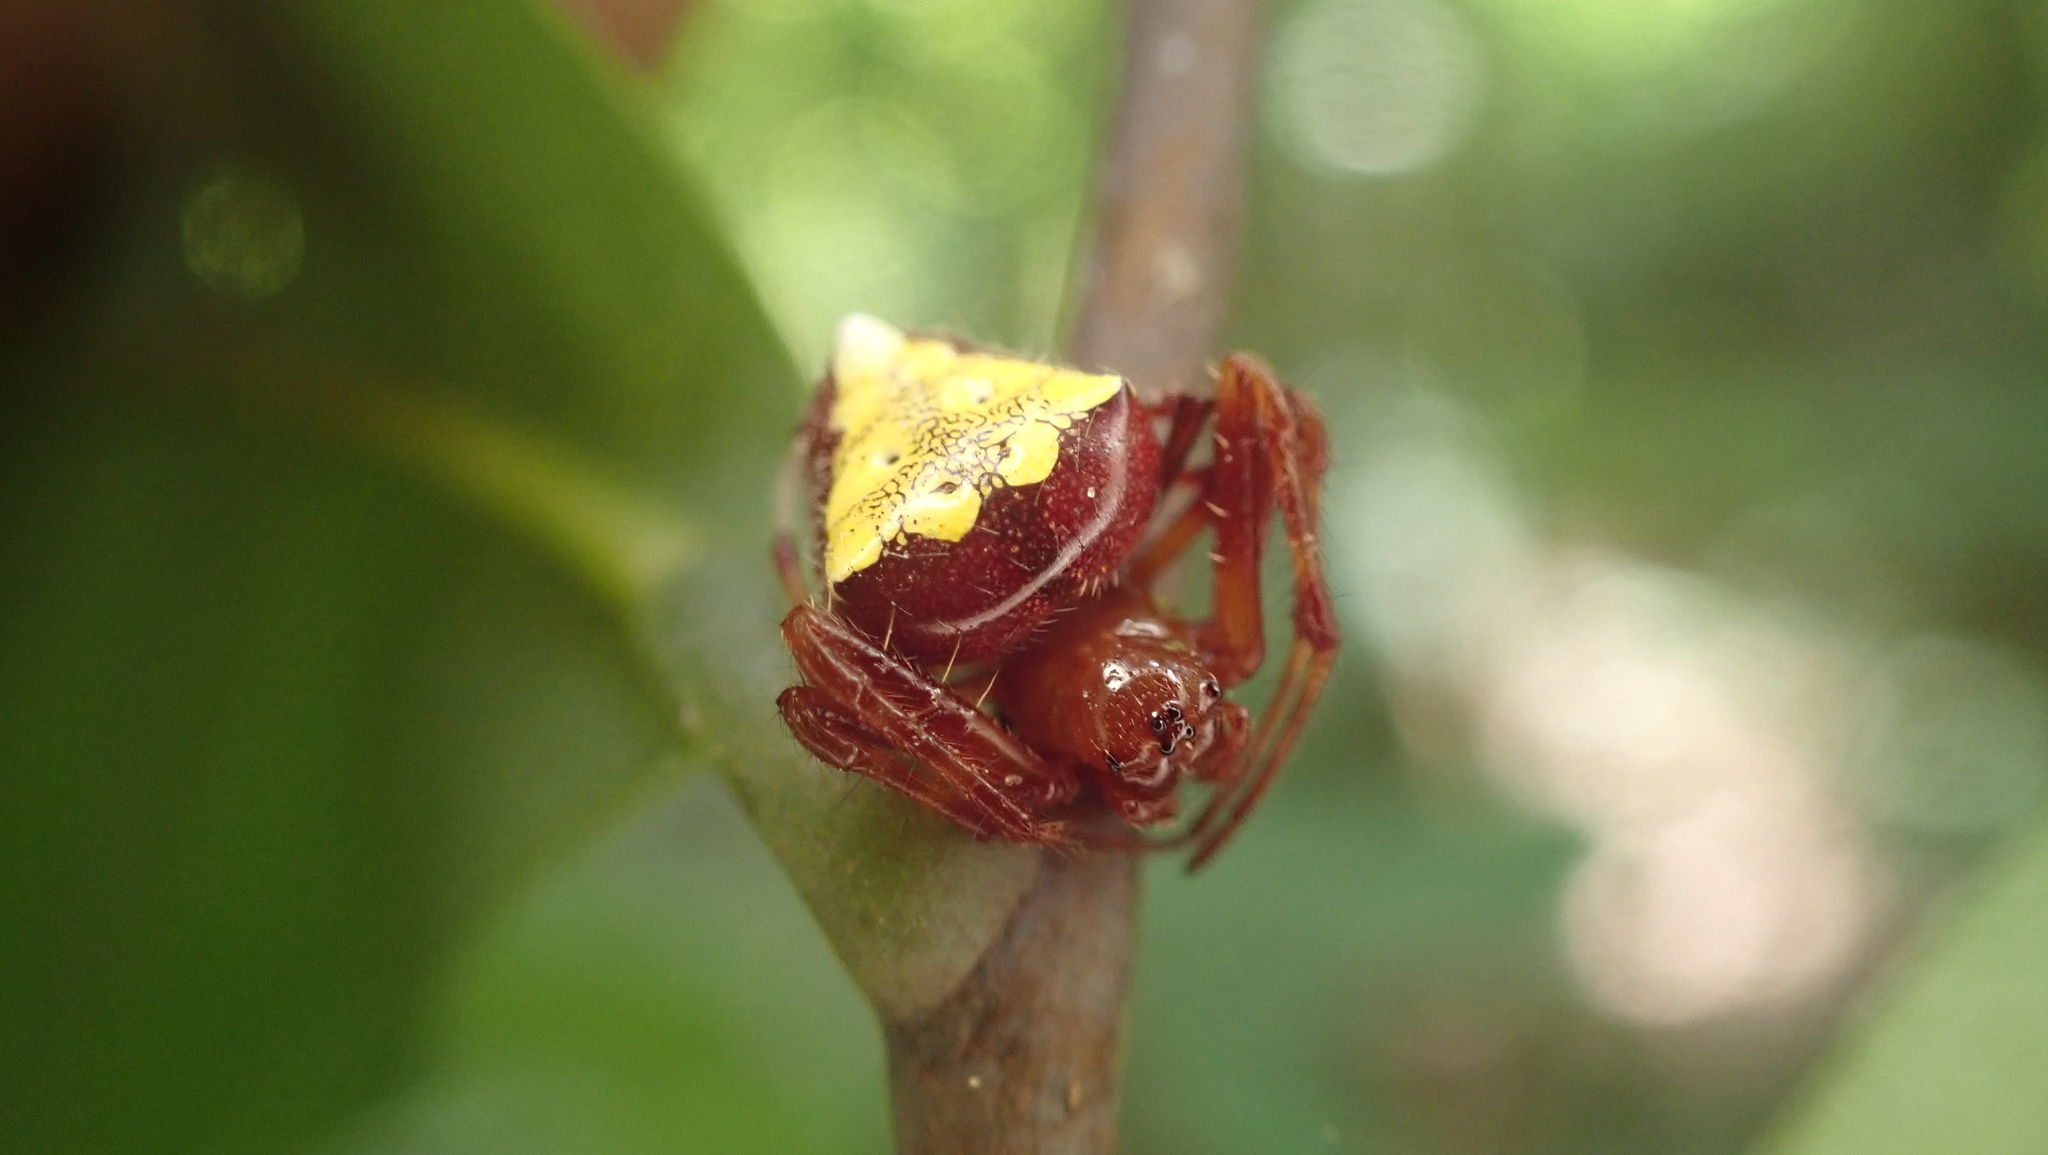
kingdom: Animalia
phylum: Arthropoda
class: Arachnida
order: Araneae
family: Araneidae
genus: Verrucosa
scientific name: Verrucosa arenata
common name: Orb weavers
